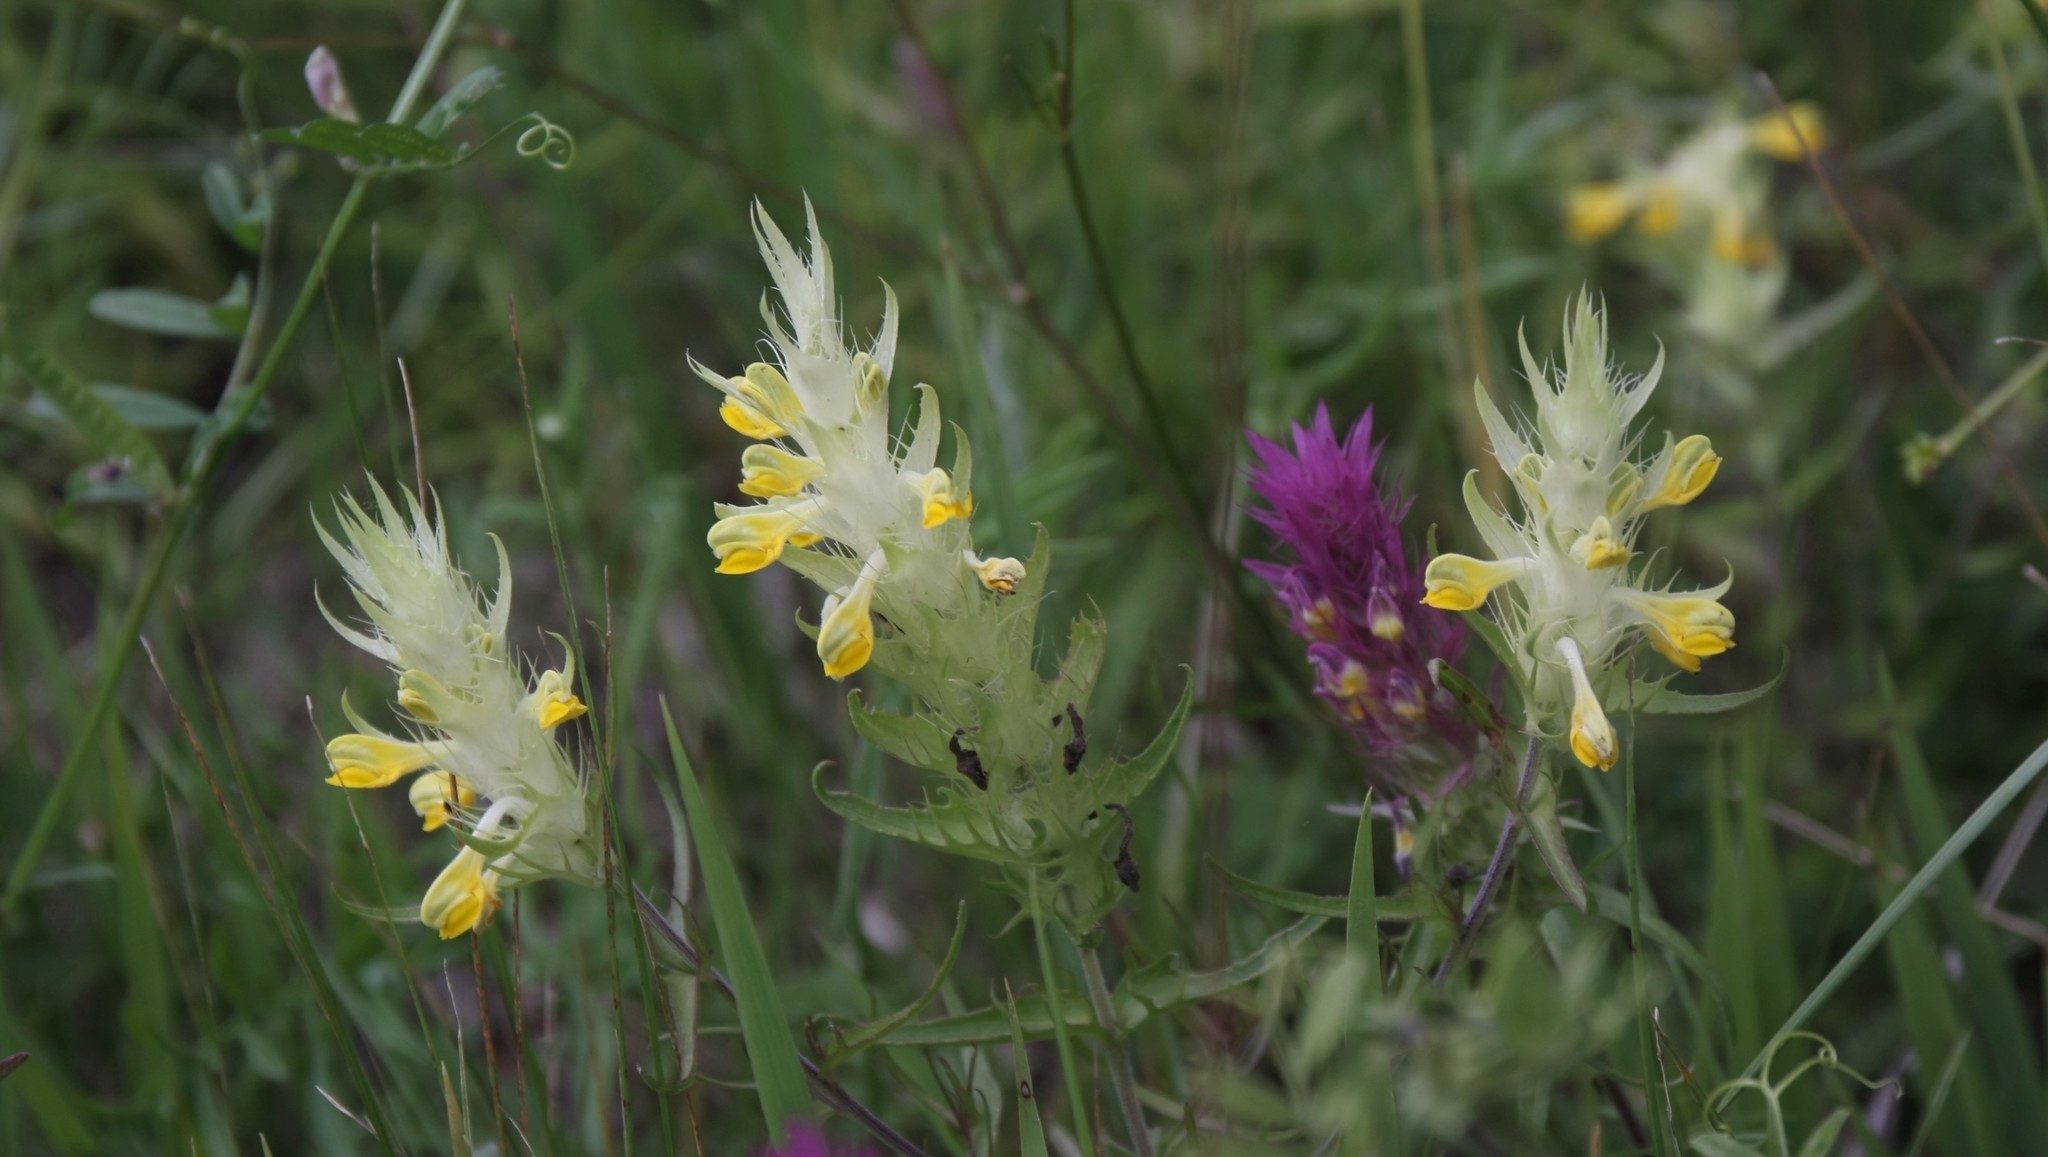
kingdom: Plantae
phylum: Tracheophyta
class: Magnoliopsida
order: Lamiales
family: Orobanchaceae
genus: Melampyrum
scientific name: Melampyrum arvense
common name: Field cow-wheat
